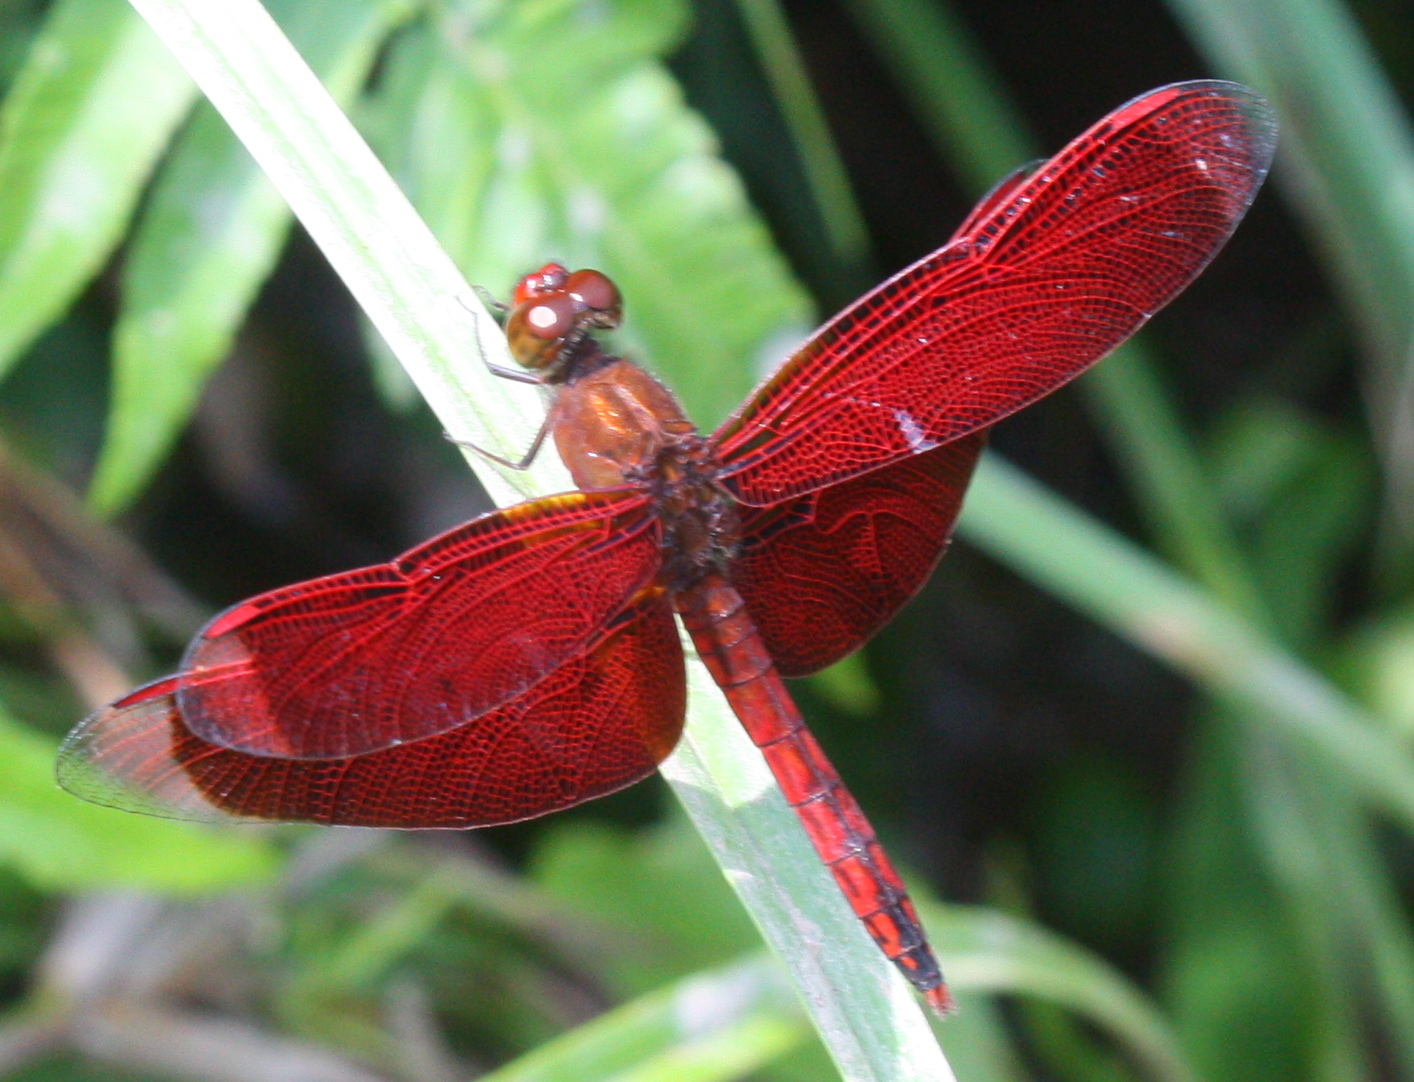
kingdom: Animalia
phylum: Arthropoda
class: Insecta
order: Odonata
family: Libellulidae
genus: Neurothemis
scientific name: Neurothemis ramburii
